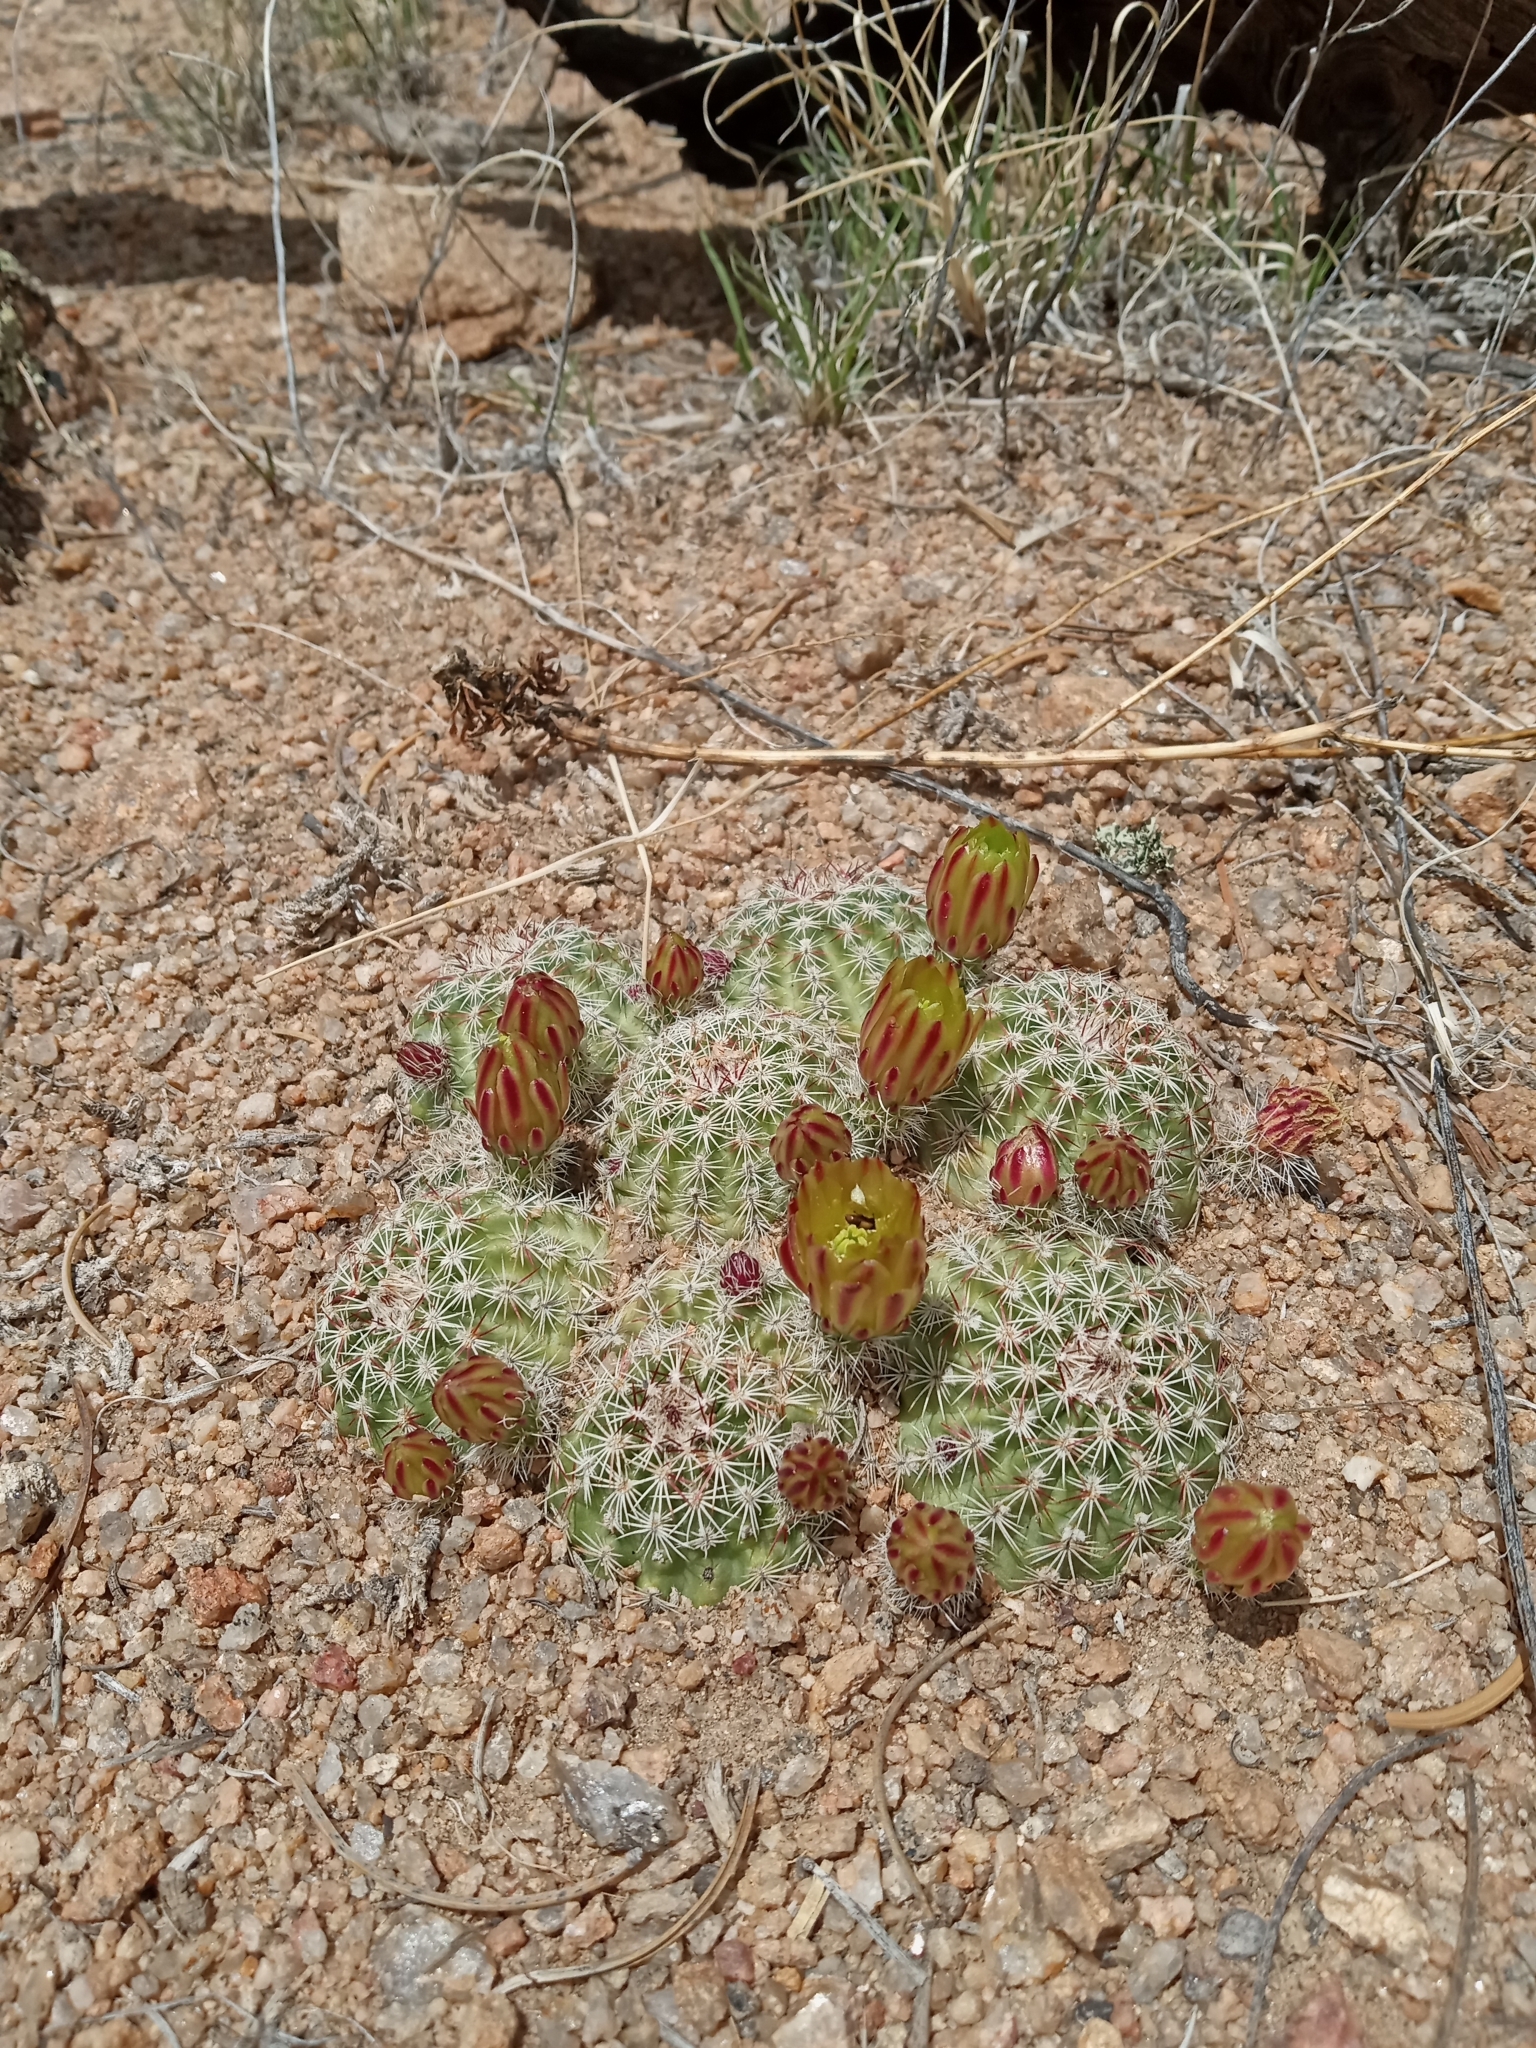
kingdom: Plantae
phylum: Tracheophyta
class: Magnoliopsida
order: Caryophyllales
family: Cactaceae
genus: Echinocereus
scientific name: Echinocereus viridiflorus
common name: Nylon hedgehog cactus
